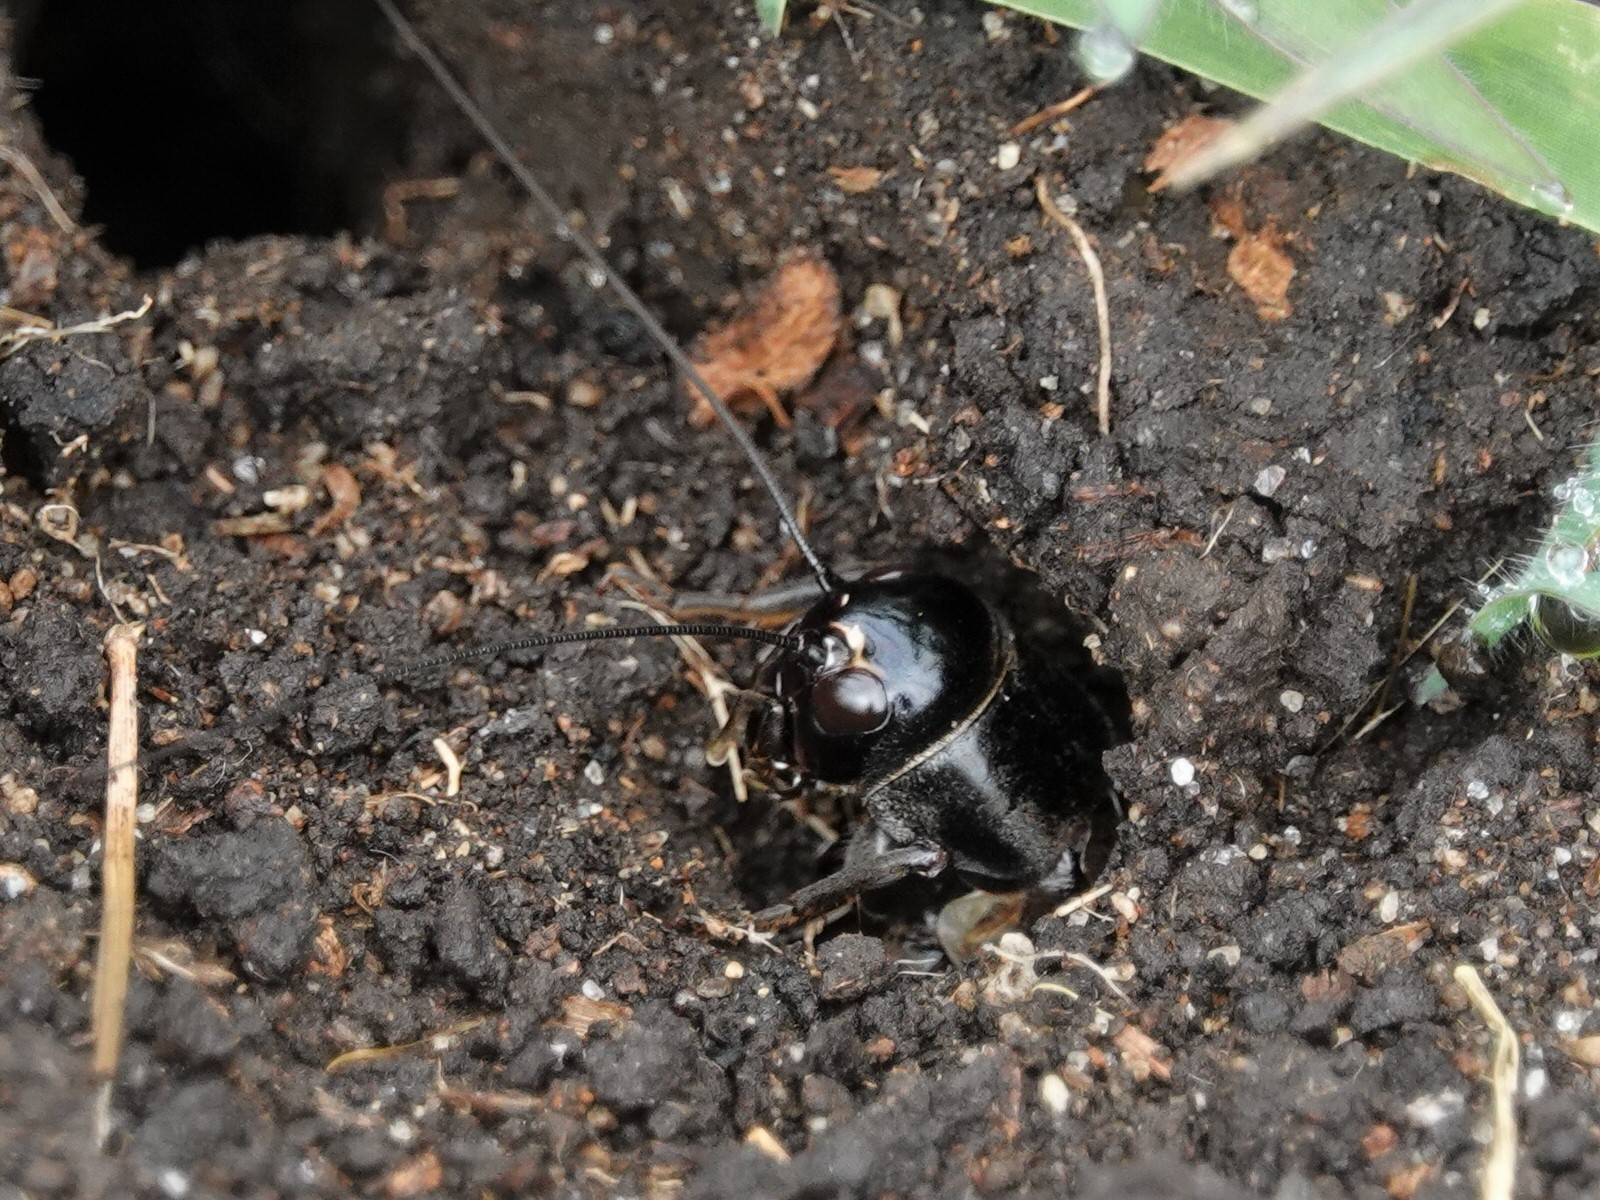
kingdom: Animalia
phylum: Arthropoda
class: Insecta
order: Orthoptera
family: Gryllidae
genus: Teleogryllus
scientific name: Teleogryllus commodus
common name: Black field cricket
